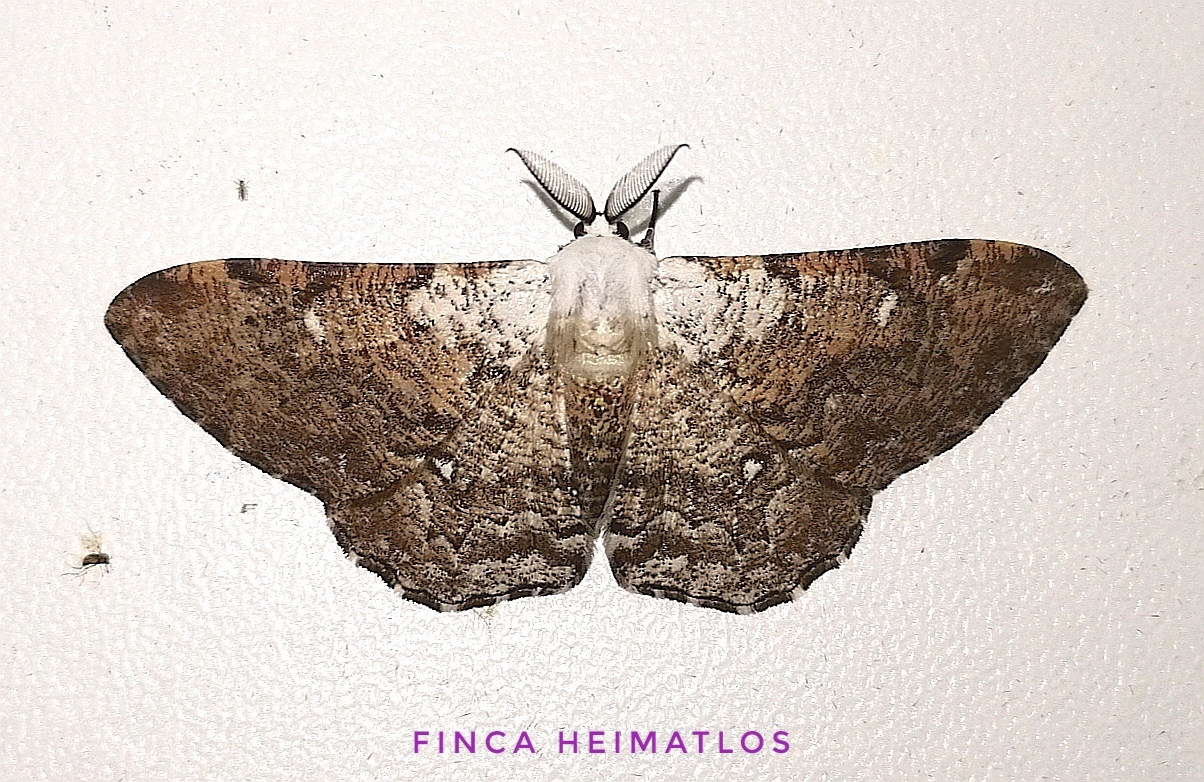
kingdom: Animalia
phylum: Arthropoda
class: Insecta
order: Lepidoptera
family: Geometridae
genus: Thyrinteina
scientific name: Thyrinteina arnobia
